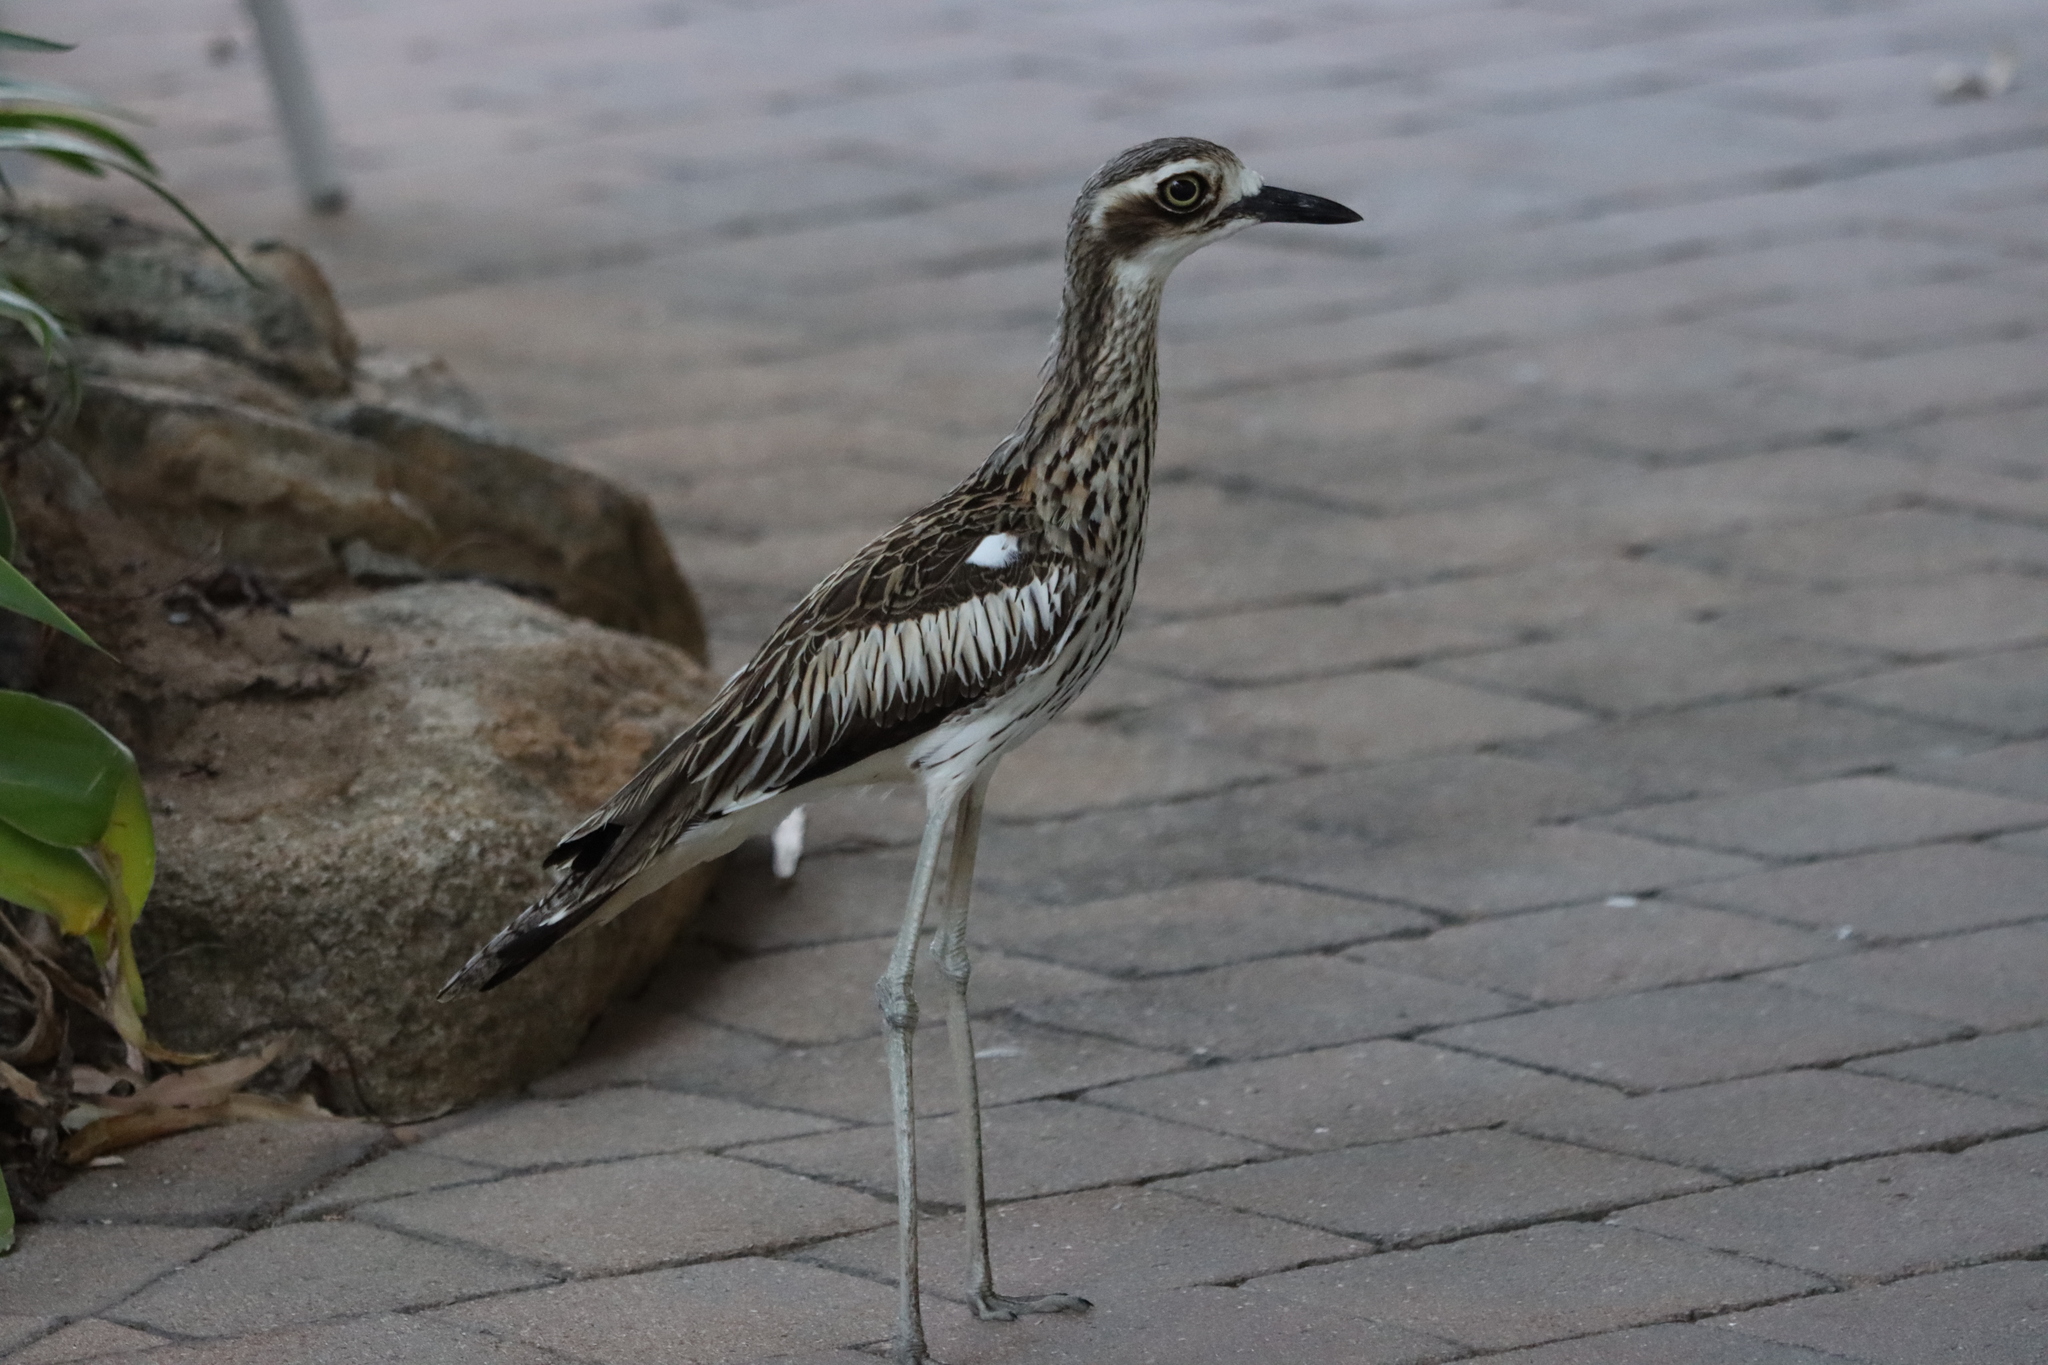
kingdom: Animalia
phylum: Chordata
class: Aves
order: Charadriiformes
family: Burhinidae
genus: Burhinus
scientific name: Burhinus grallarius
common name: Bush stone-curlew
